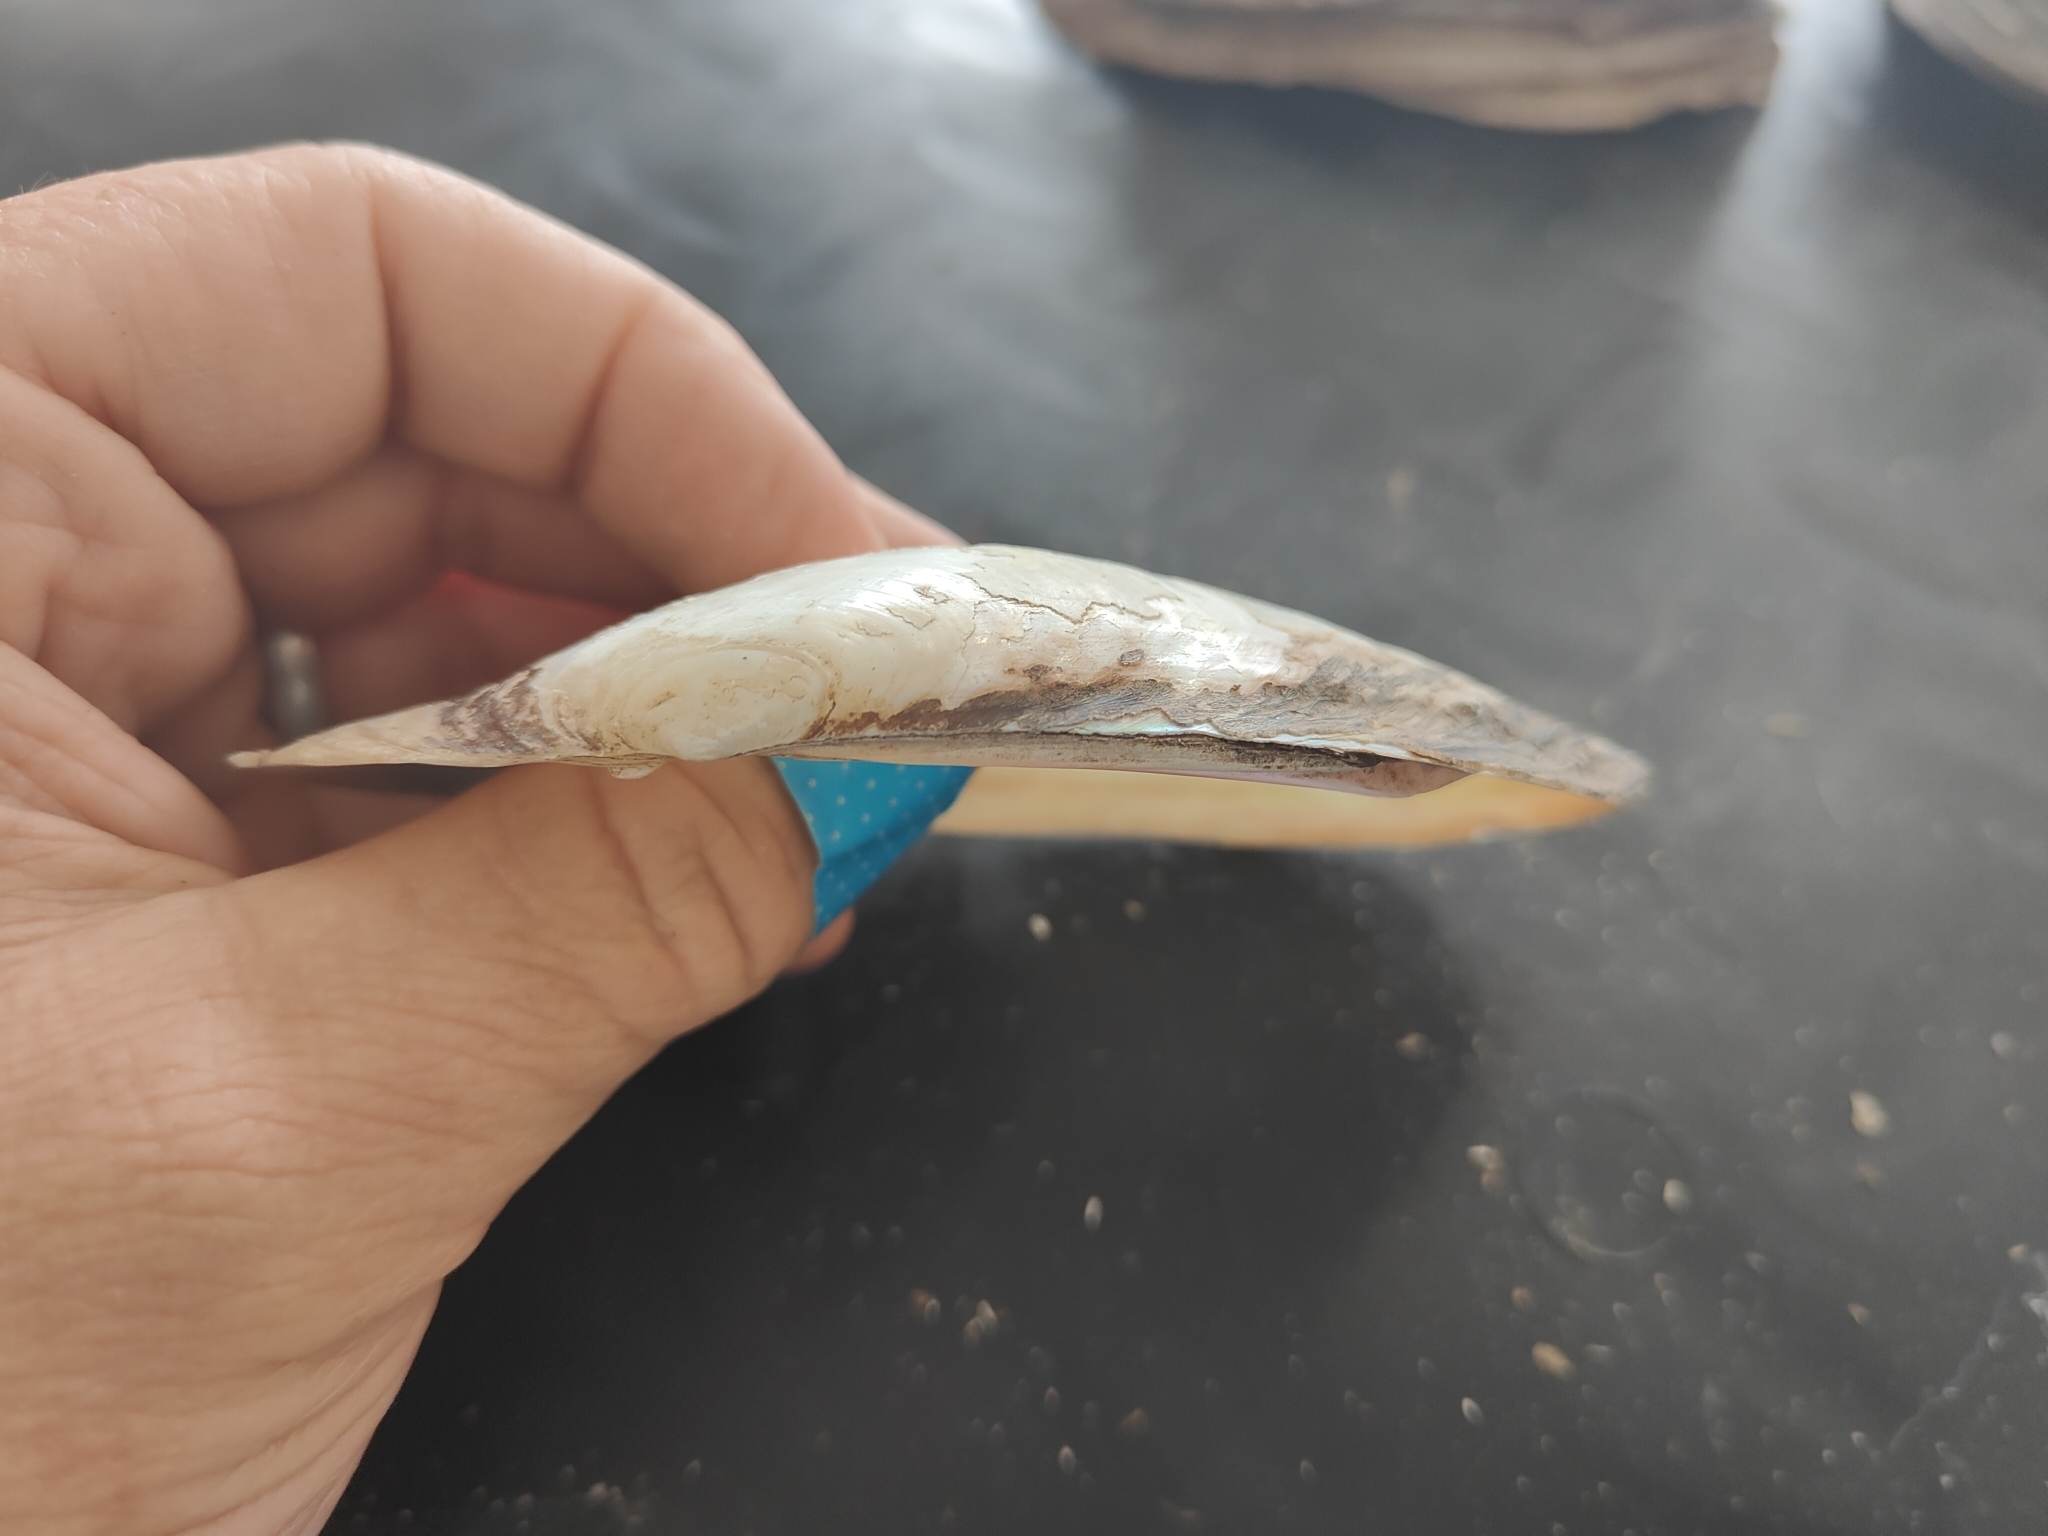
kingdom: Animalia
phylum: Mollusca
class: Bivalvia
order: Unionida
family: Unionidae
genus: Potamilus
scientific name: Potamilus fragilis
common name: Fragile papershell
